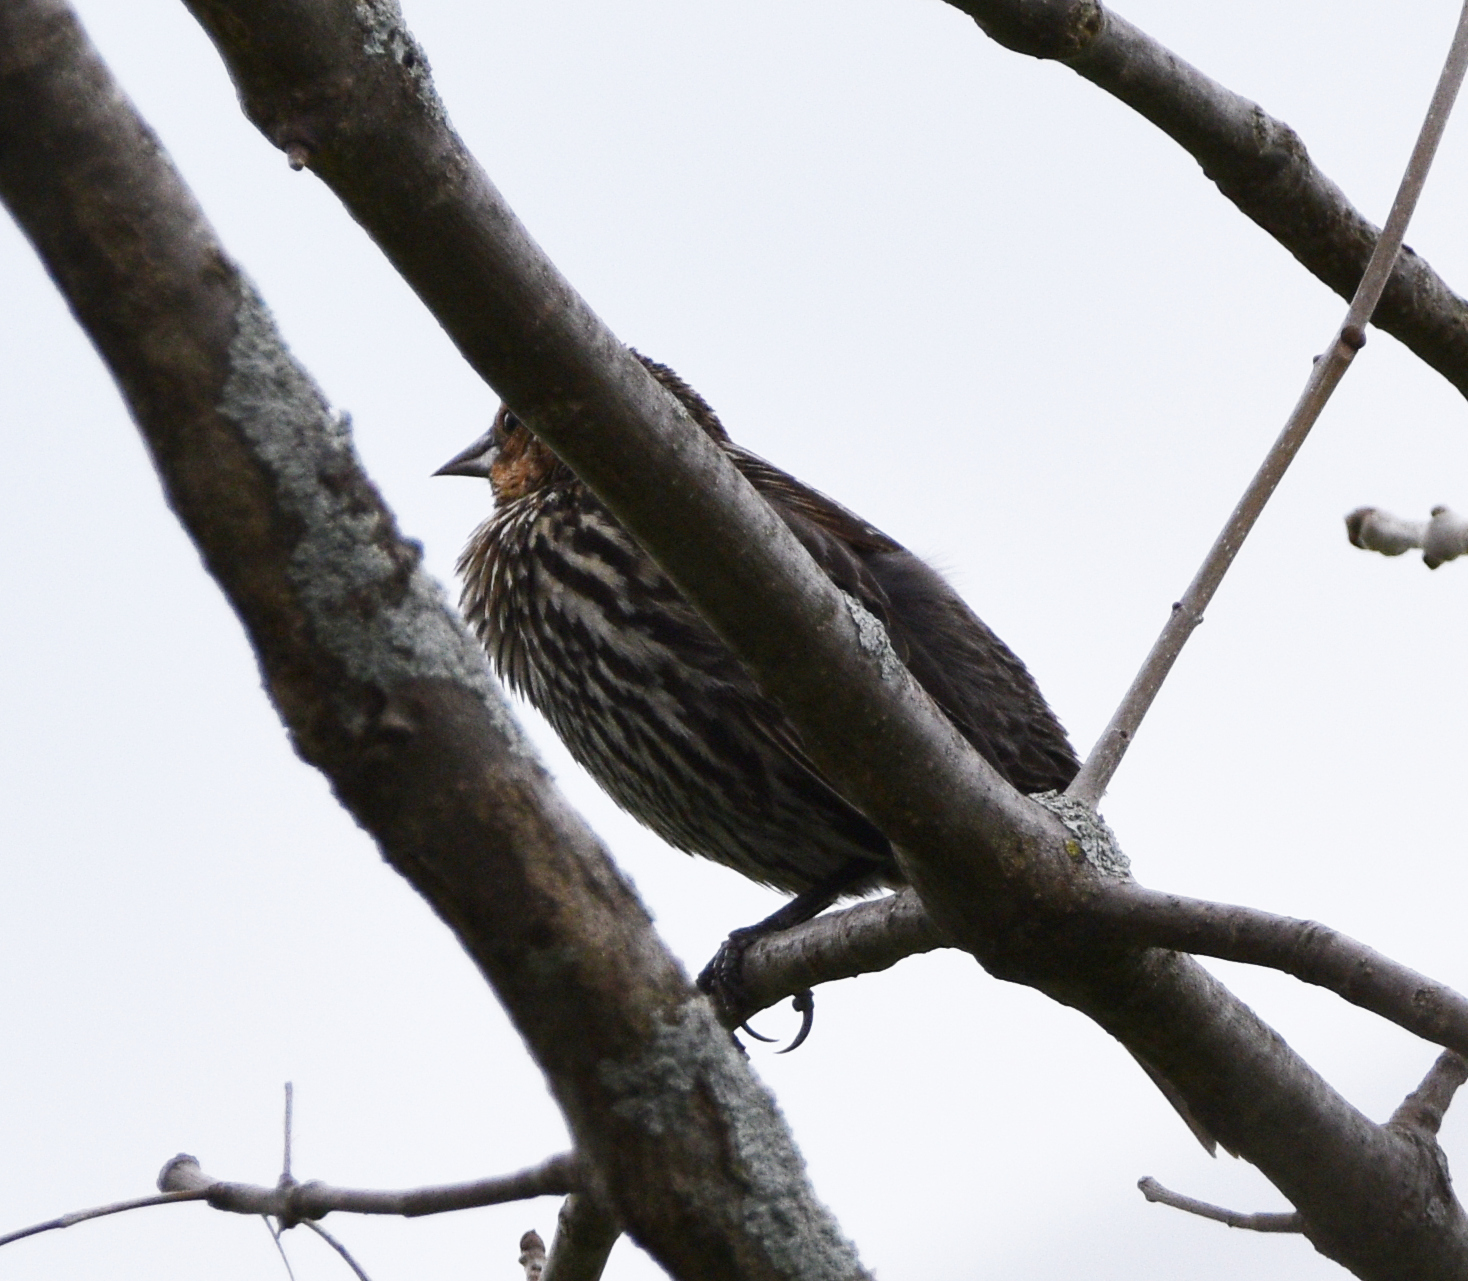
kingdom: Animalia
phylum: Chordata
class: Aves
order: Passeriformes
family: Icteridae
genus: Agelaius
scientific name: Agelaius phoeniceus
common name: Red-winged blackbird
